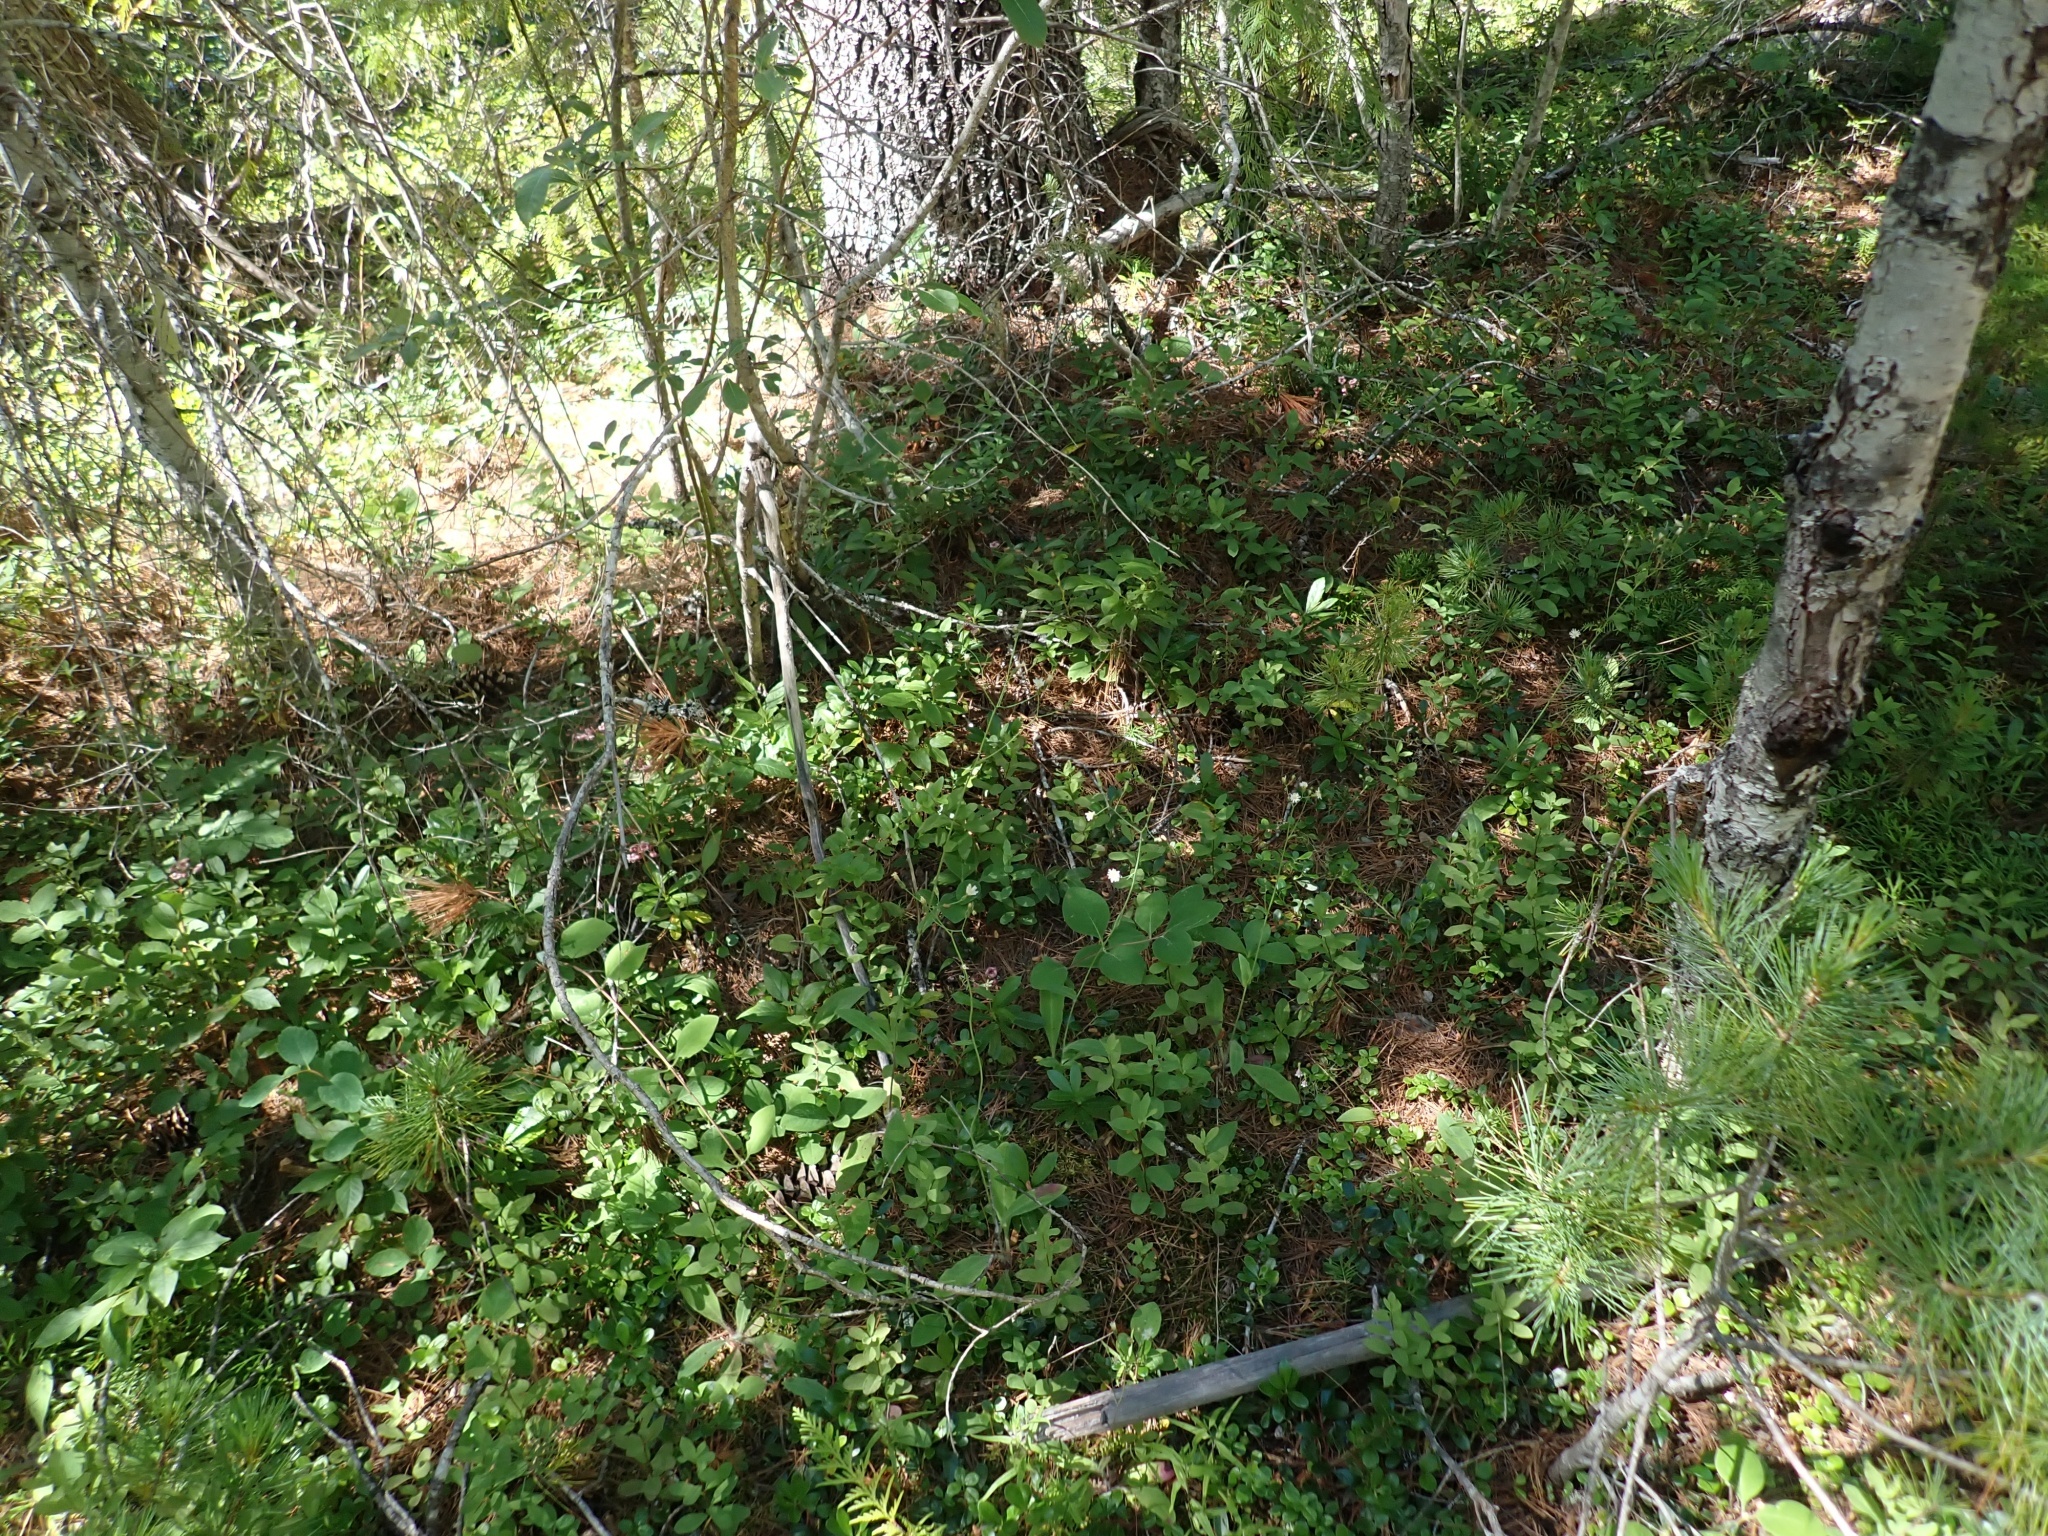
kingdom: Plantae
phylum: Tracheophyta
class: Magnoliopsida
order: Asterales
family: Asteraceae
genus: Hieracium
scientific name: Hieracium albiflorum
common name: White hawkweed
